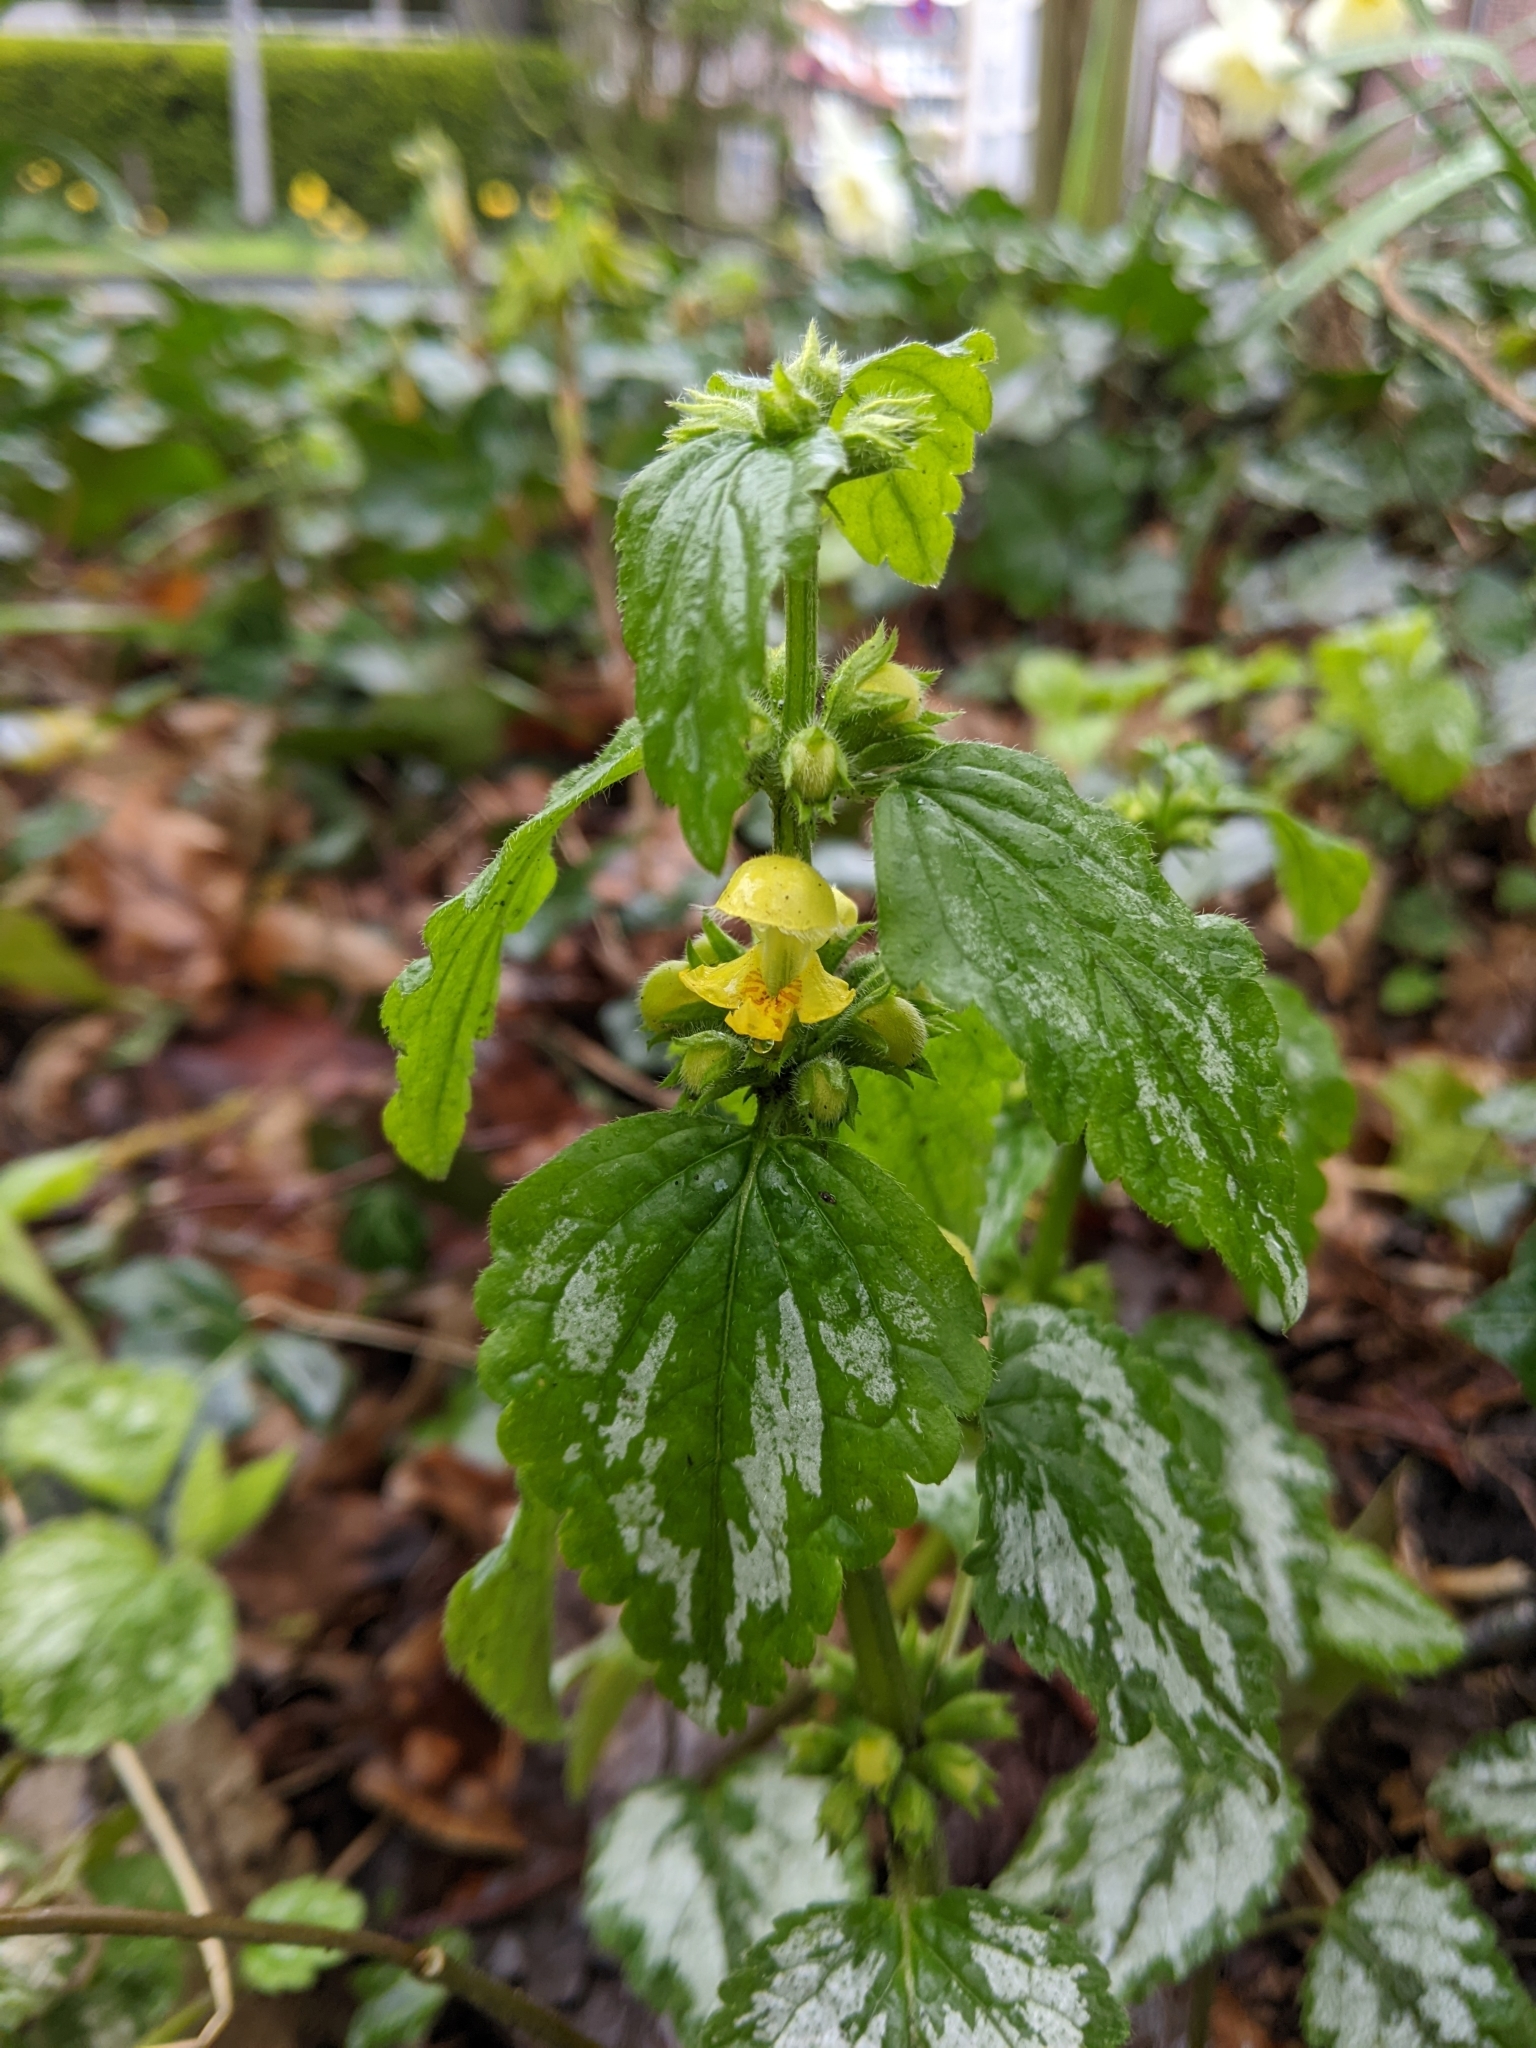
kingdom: Plantae
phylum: Tracheophyta
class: Magnoliopsida
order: Lamiales
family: Lamiaceae
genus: Lamium
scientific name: Lamium galeobdolon
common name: Yellow archangel
